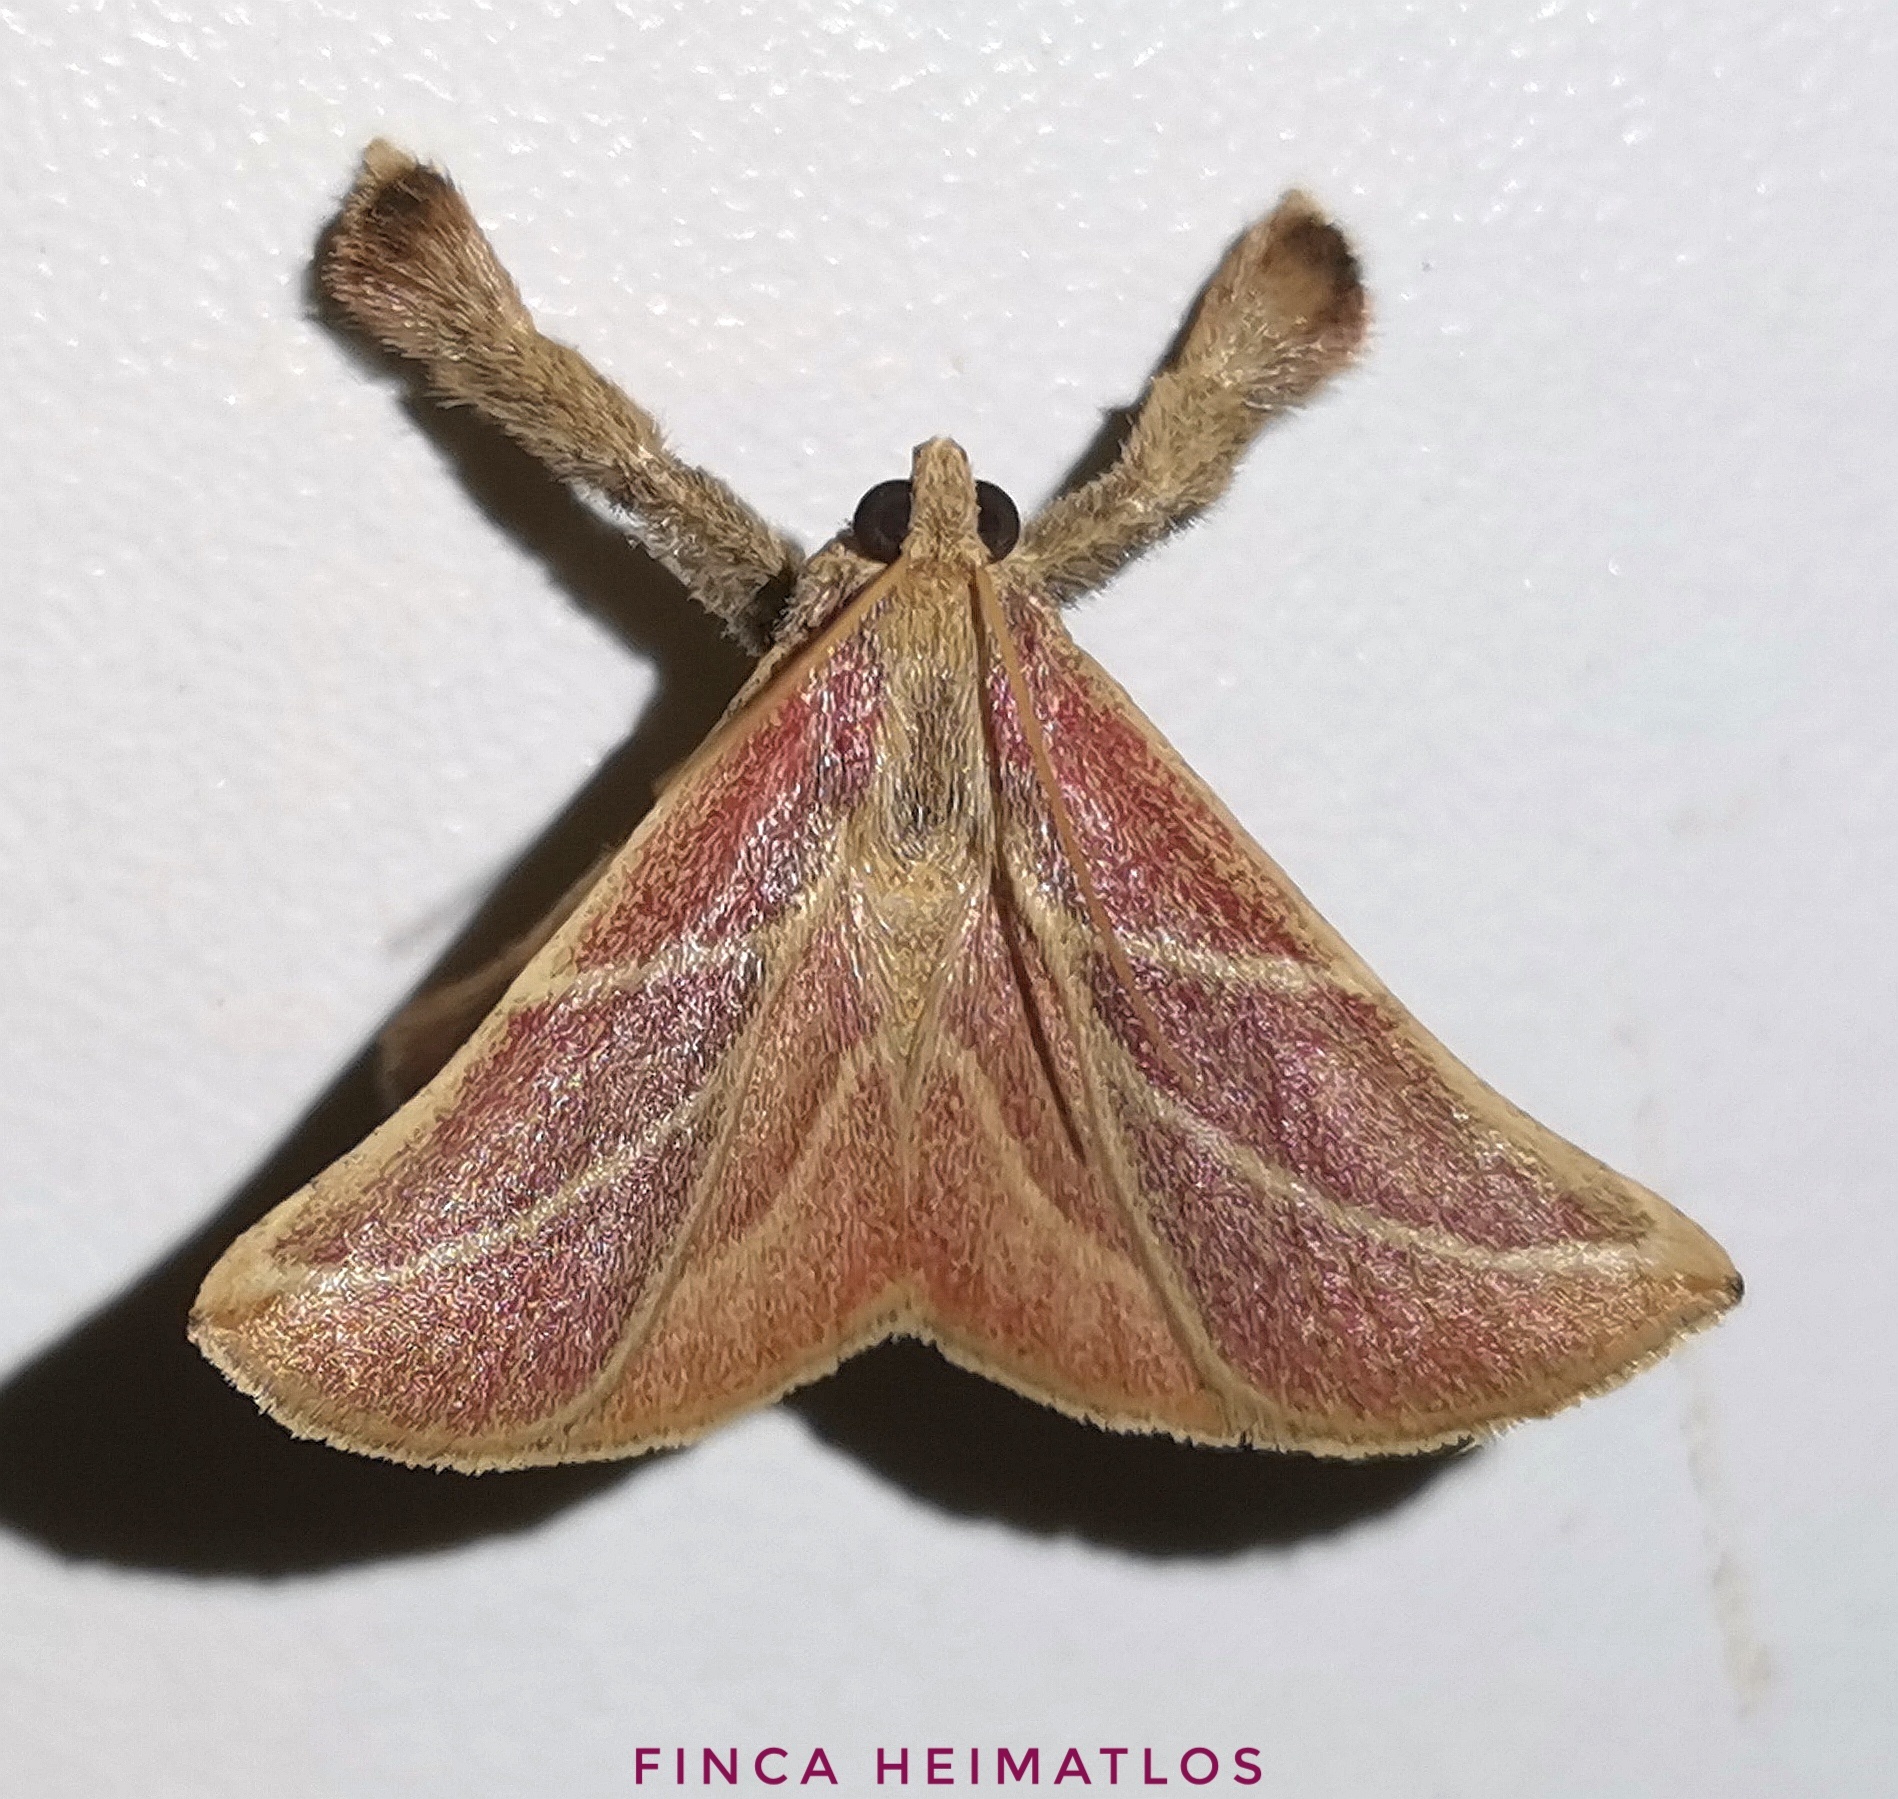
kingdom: Animalia
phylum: Arthropoda
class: Insecta
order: Lepidoptera
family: Pyralidae
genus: Pachypodistes
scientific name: Pachypodistes goeldii
